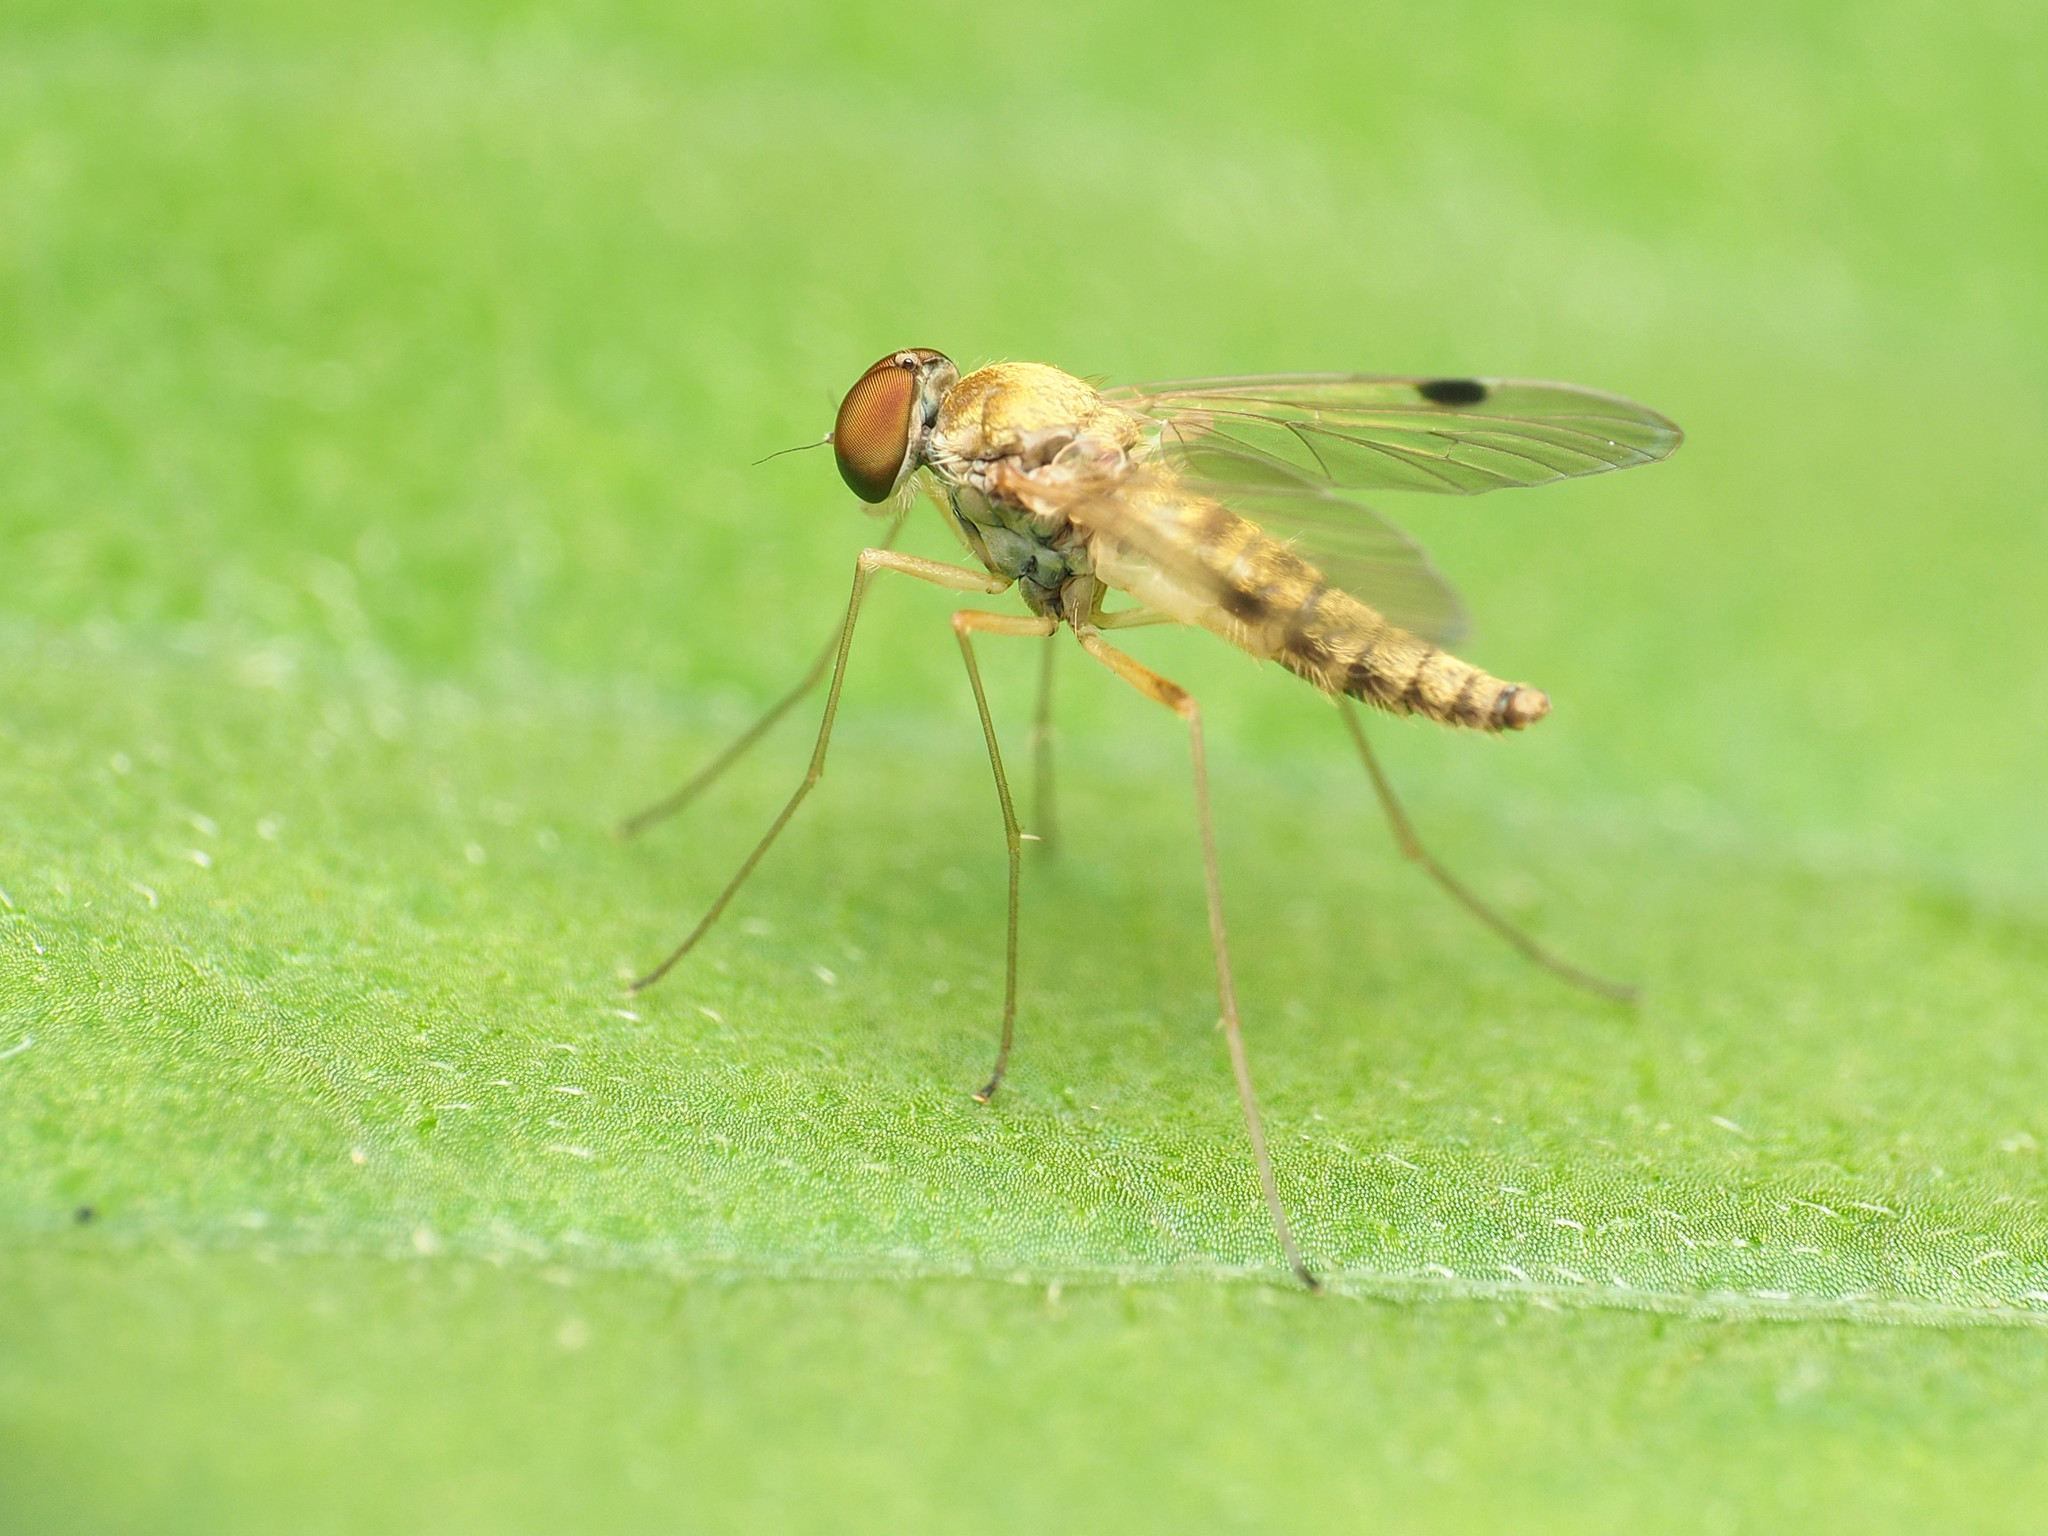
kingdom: Animalia
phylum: Arthropoda
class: Insecta
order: Diptera
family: Rhagionidae
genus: Chrysopilus
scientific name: Chrysopilus modestus
